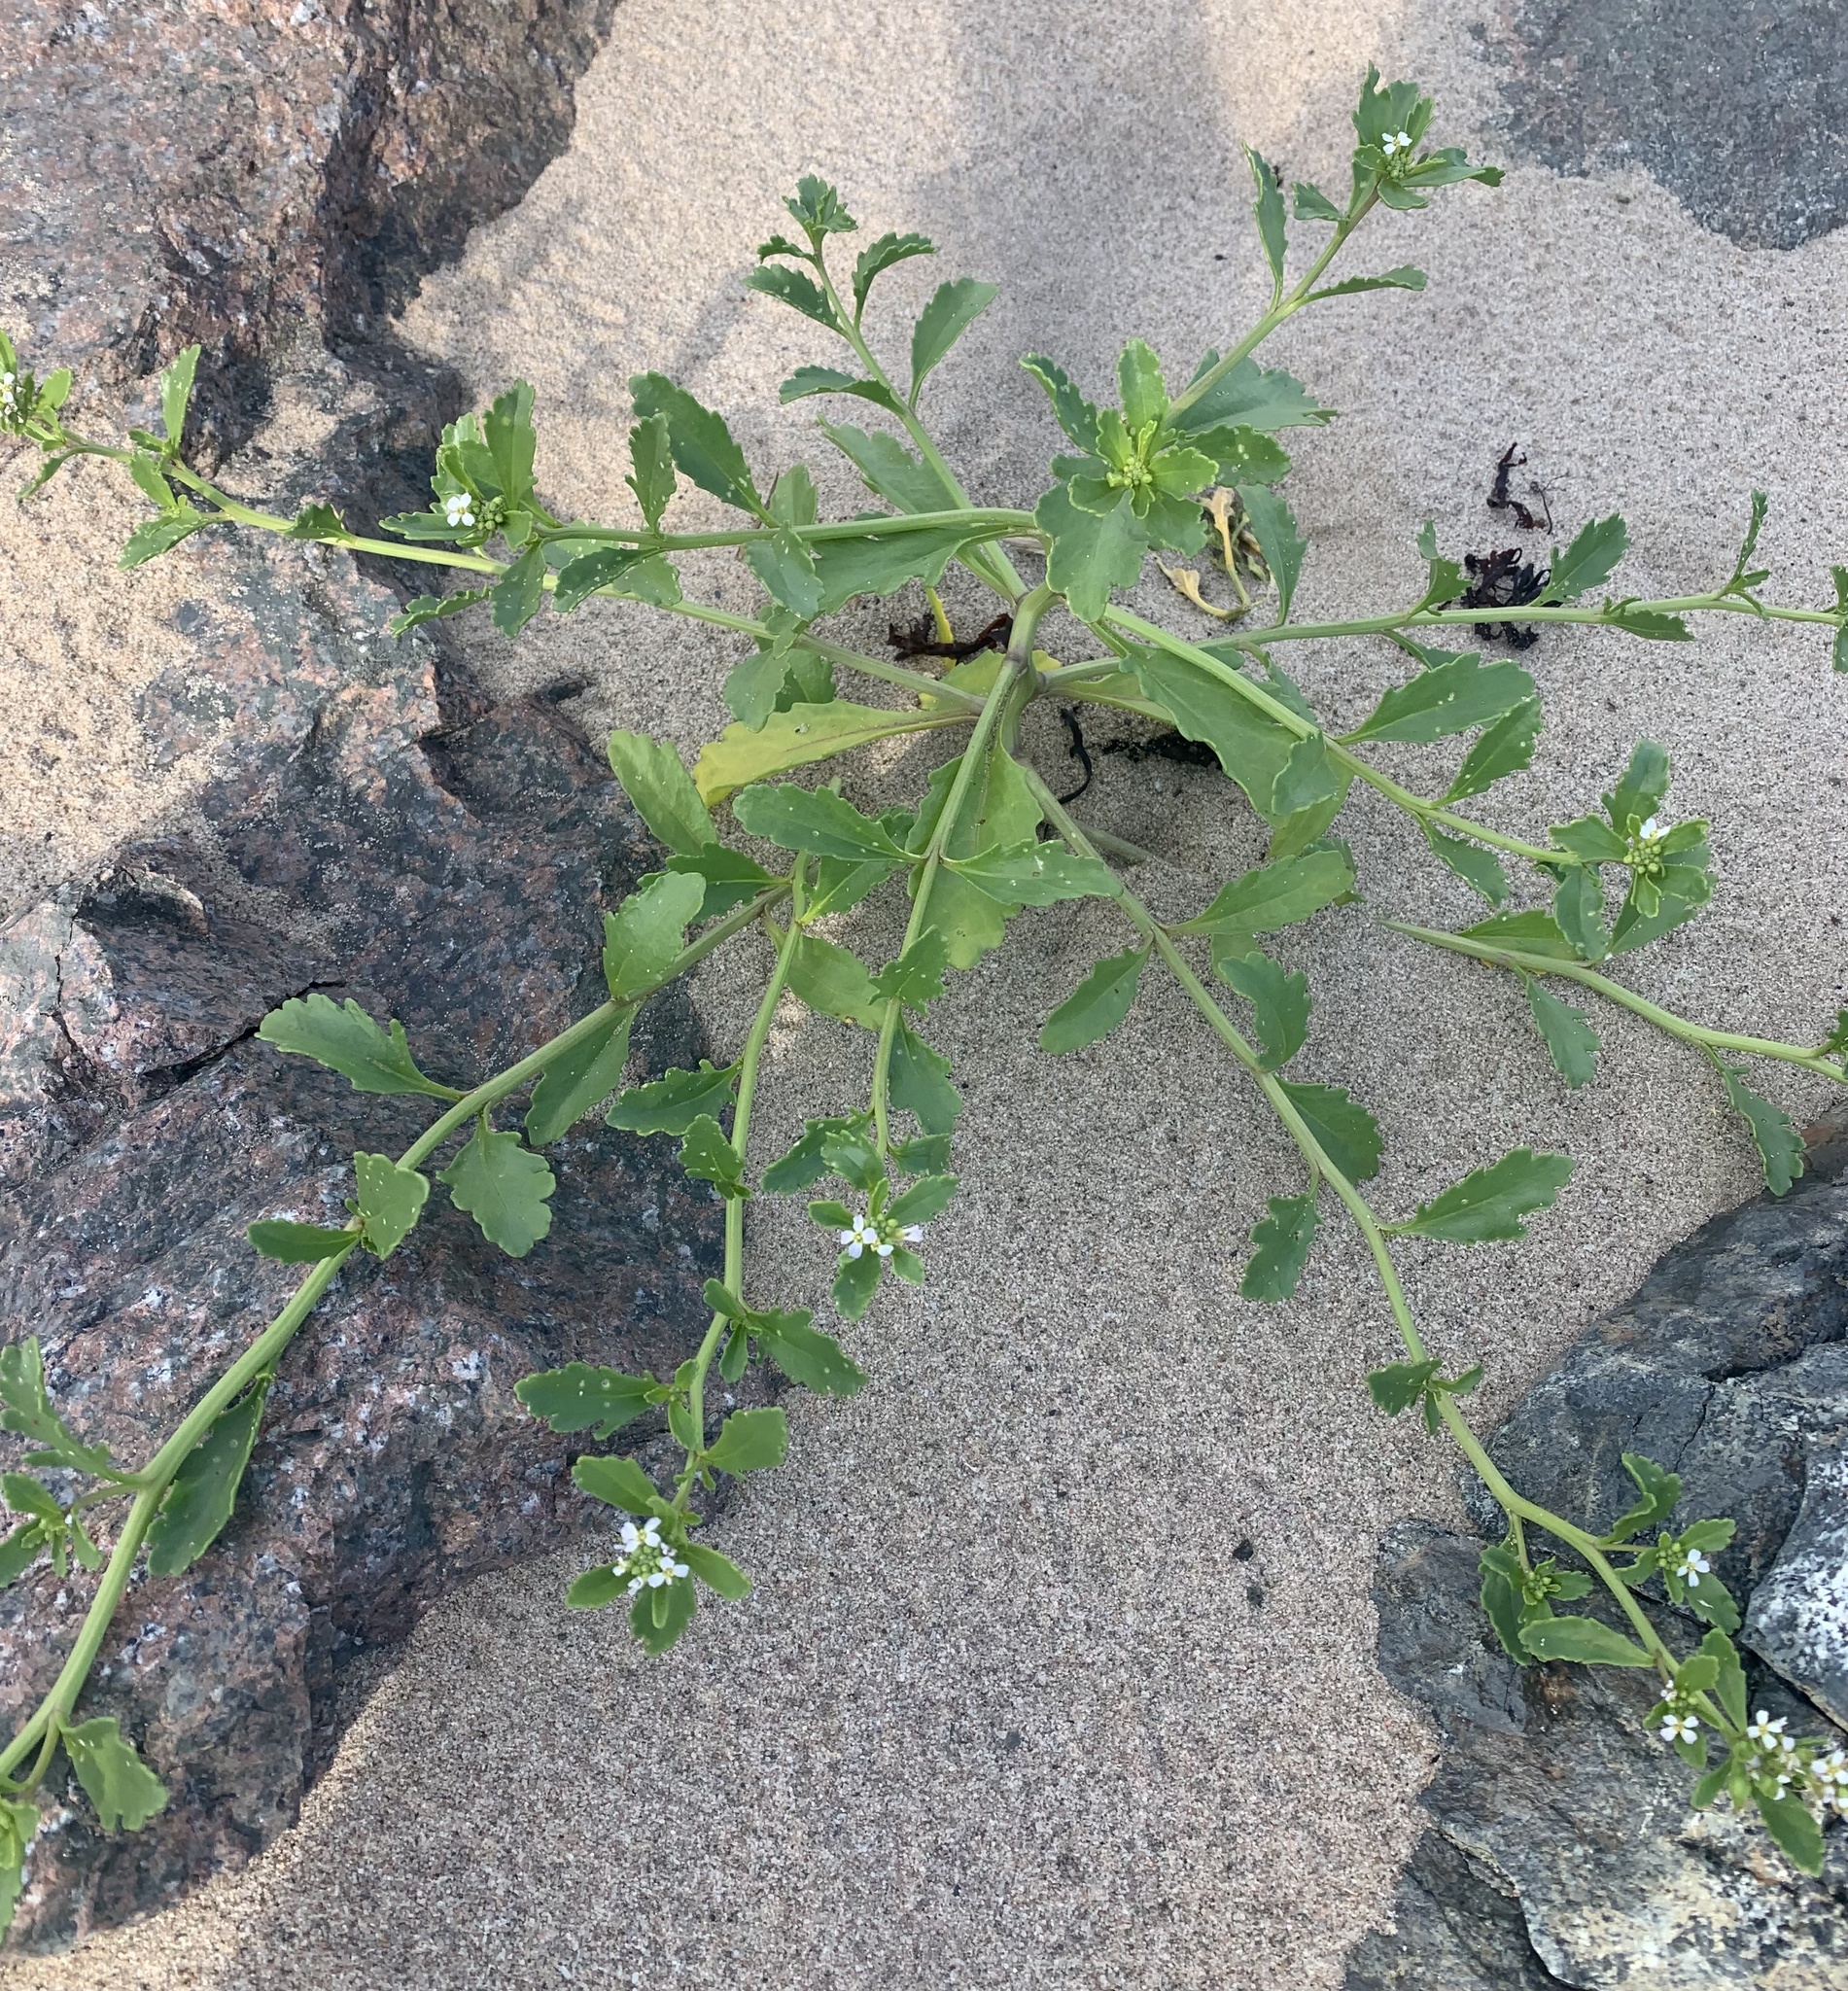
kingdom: Plantae
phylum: Tracheophyta
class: Magnoliopsida
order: Brassicales
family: Brassicaceae
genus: Cakile
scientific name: Cakile edentula
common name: American sea rocket
